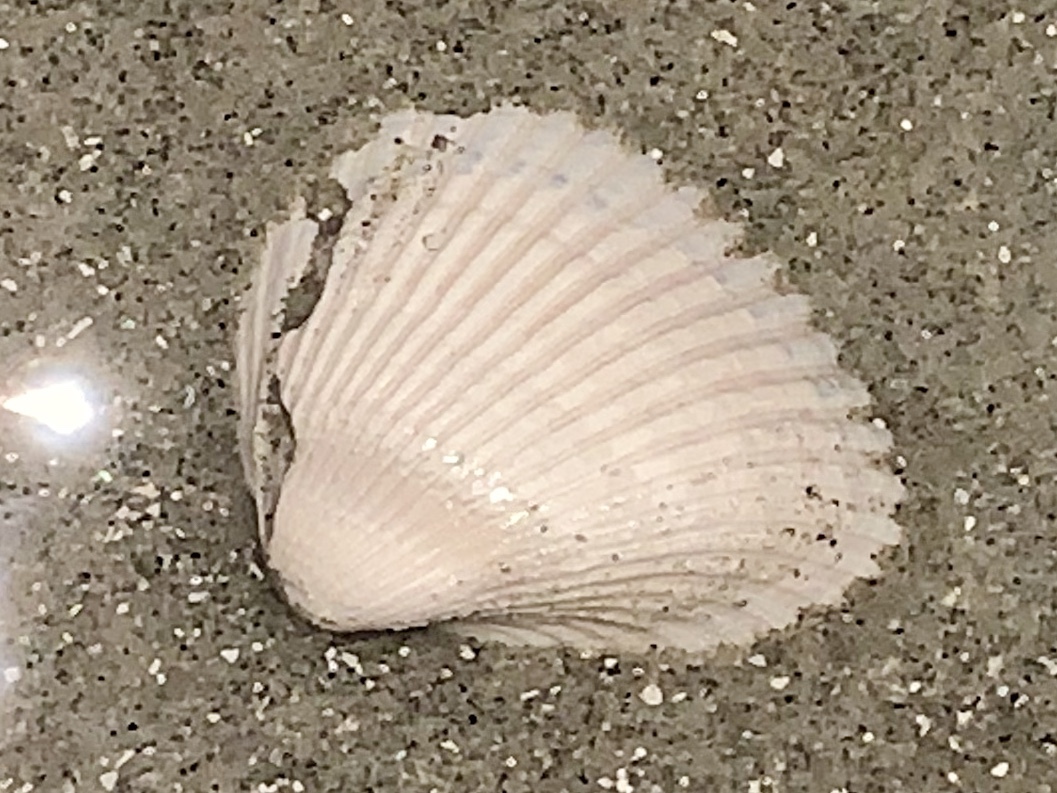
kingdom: Animalia
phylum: Mollusca
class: Bivalvia
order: Arcida
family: Noetiidae
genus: Noetia
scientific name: Noetia ponderosa
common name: Ponderous ark
